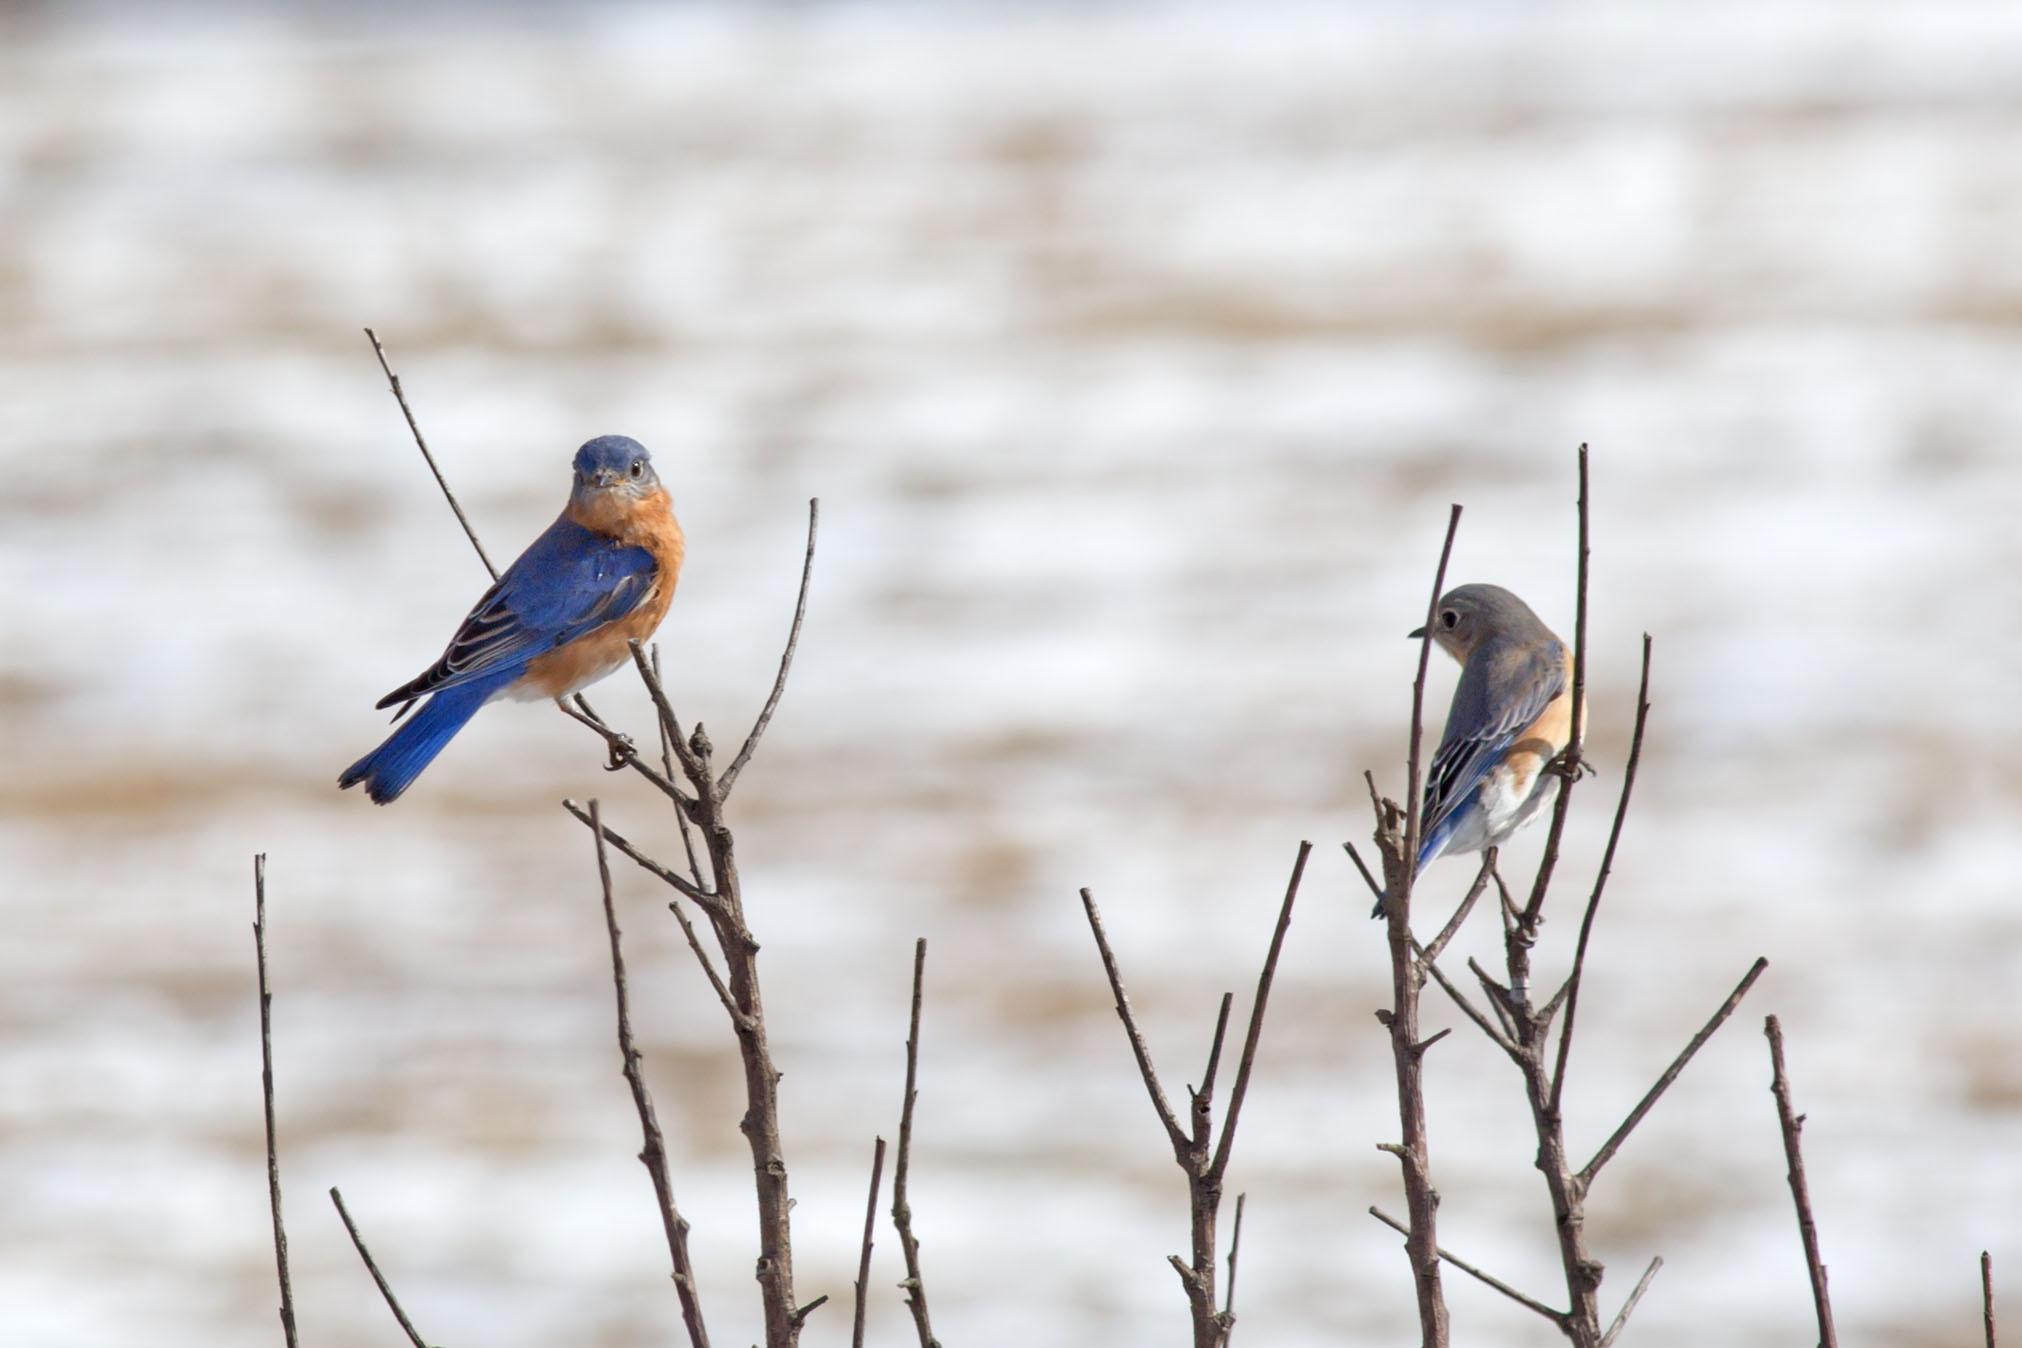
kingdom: Animalia
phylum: Chordata
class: Aves
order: Passeriformes
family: Turdidae
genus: Sialia
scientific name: Sialia sialis
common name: Eastern bluebird
